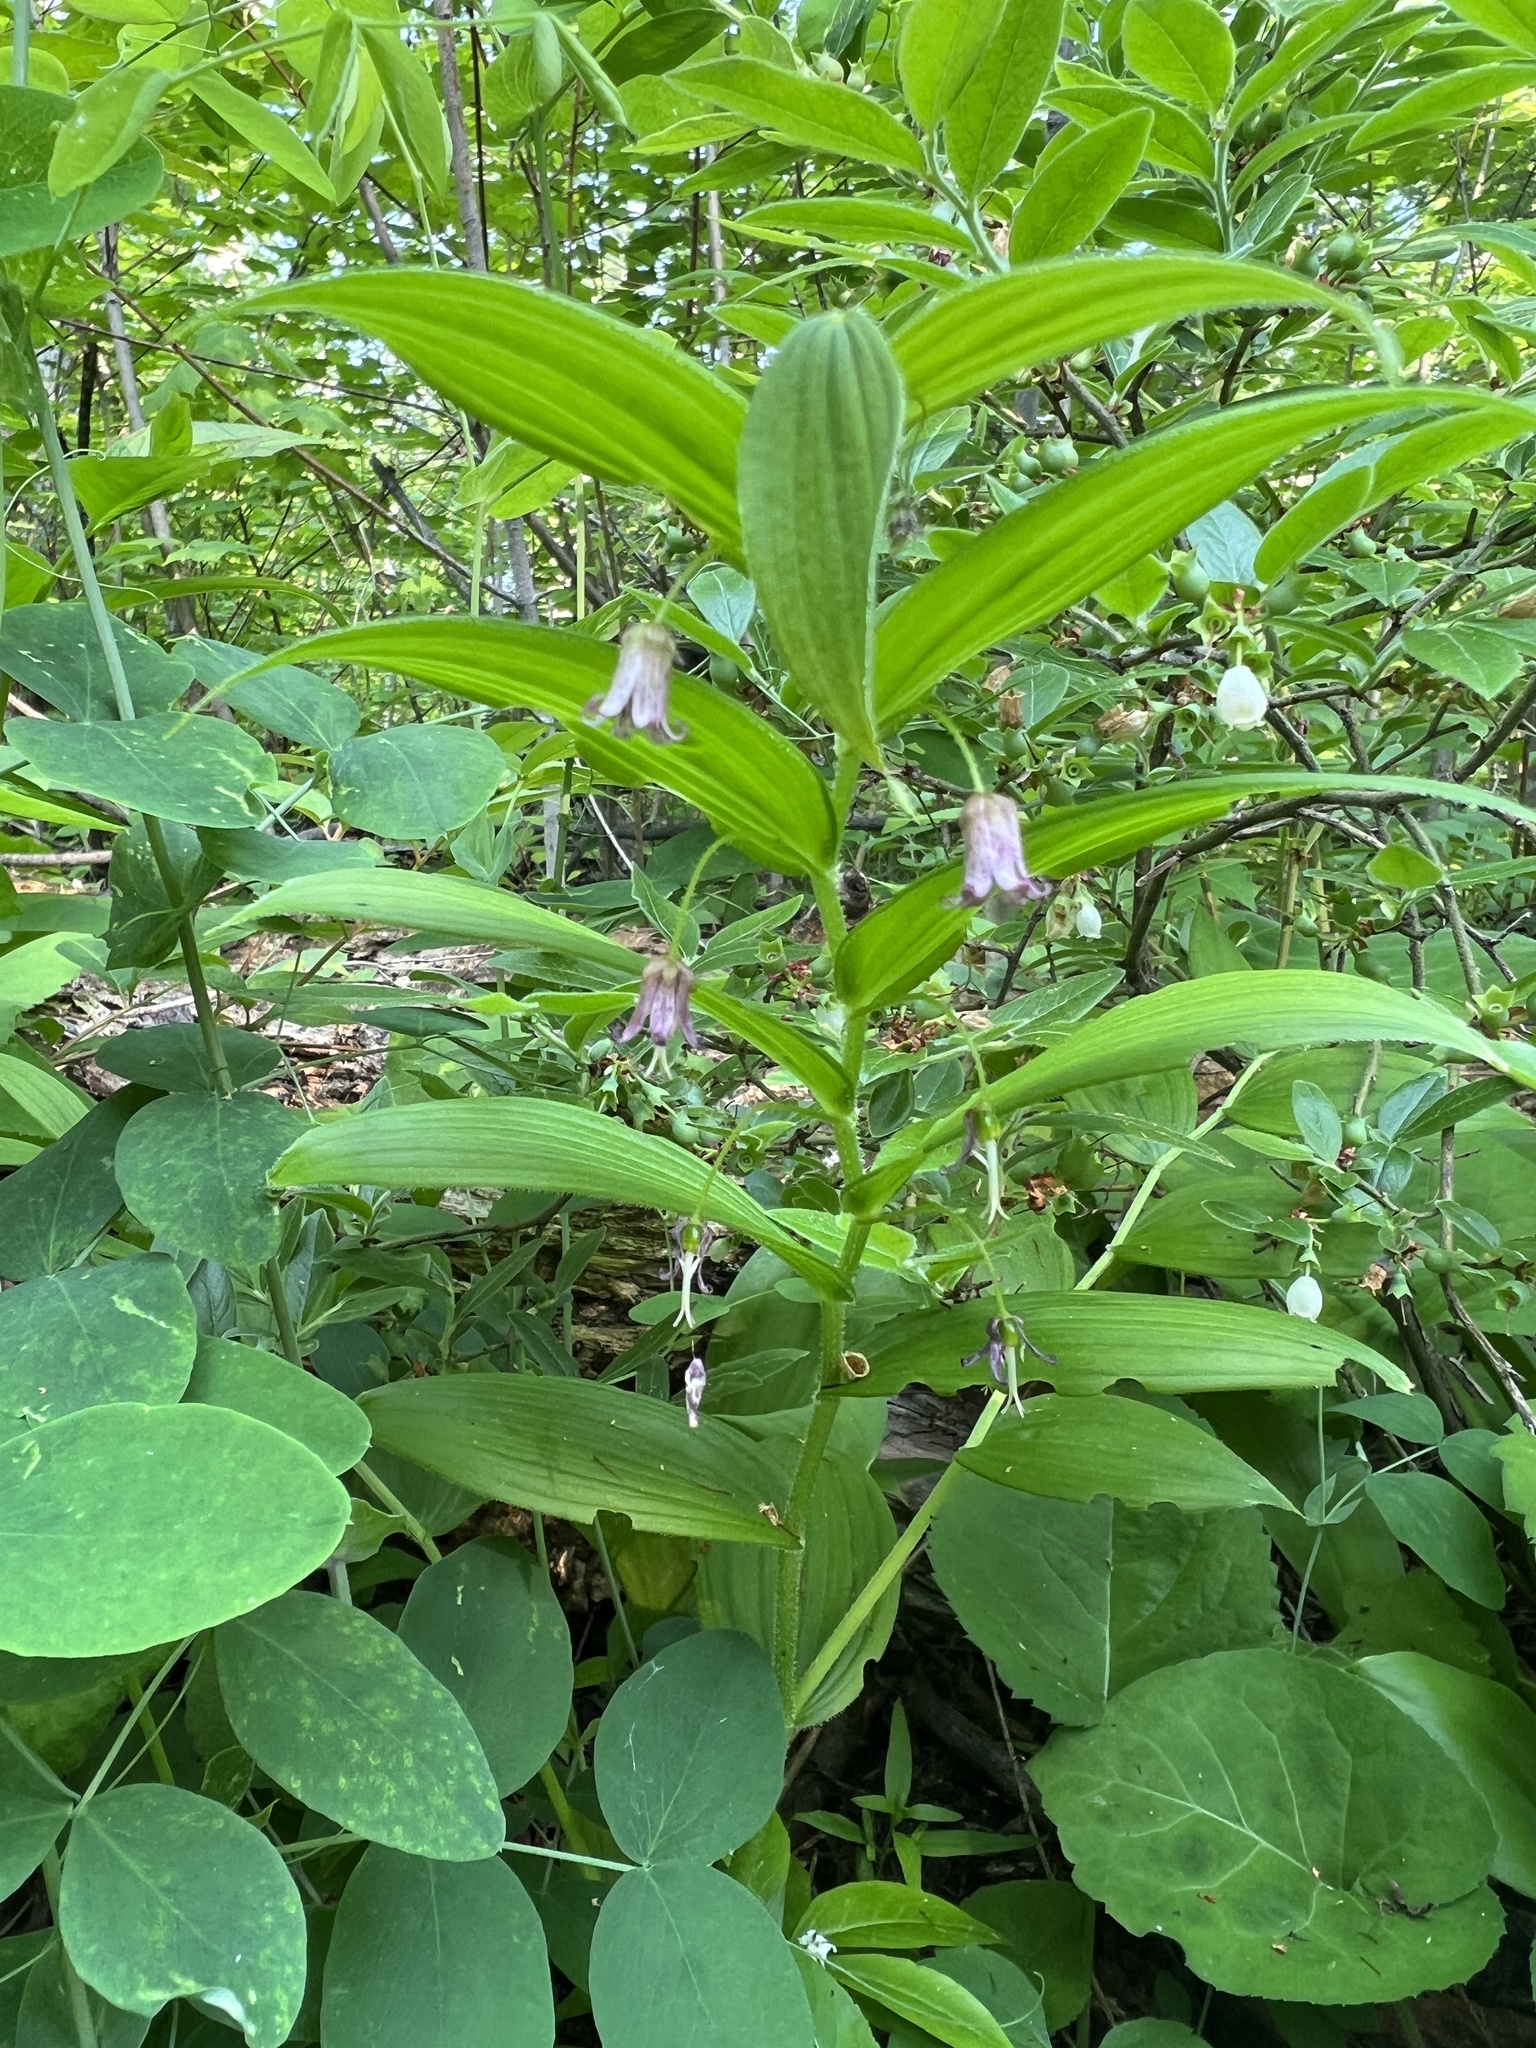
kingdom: Plantae
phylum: Tracheophyta
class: Liliopsida
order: Liliales
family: Liliaceae
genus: Streptopus
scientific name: Streptopus lanceolatus
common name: Rose mandarin
